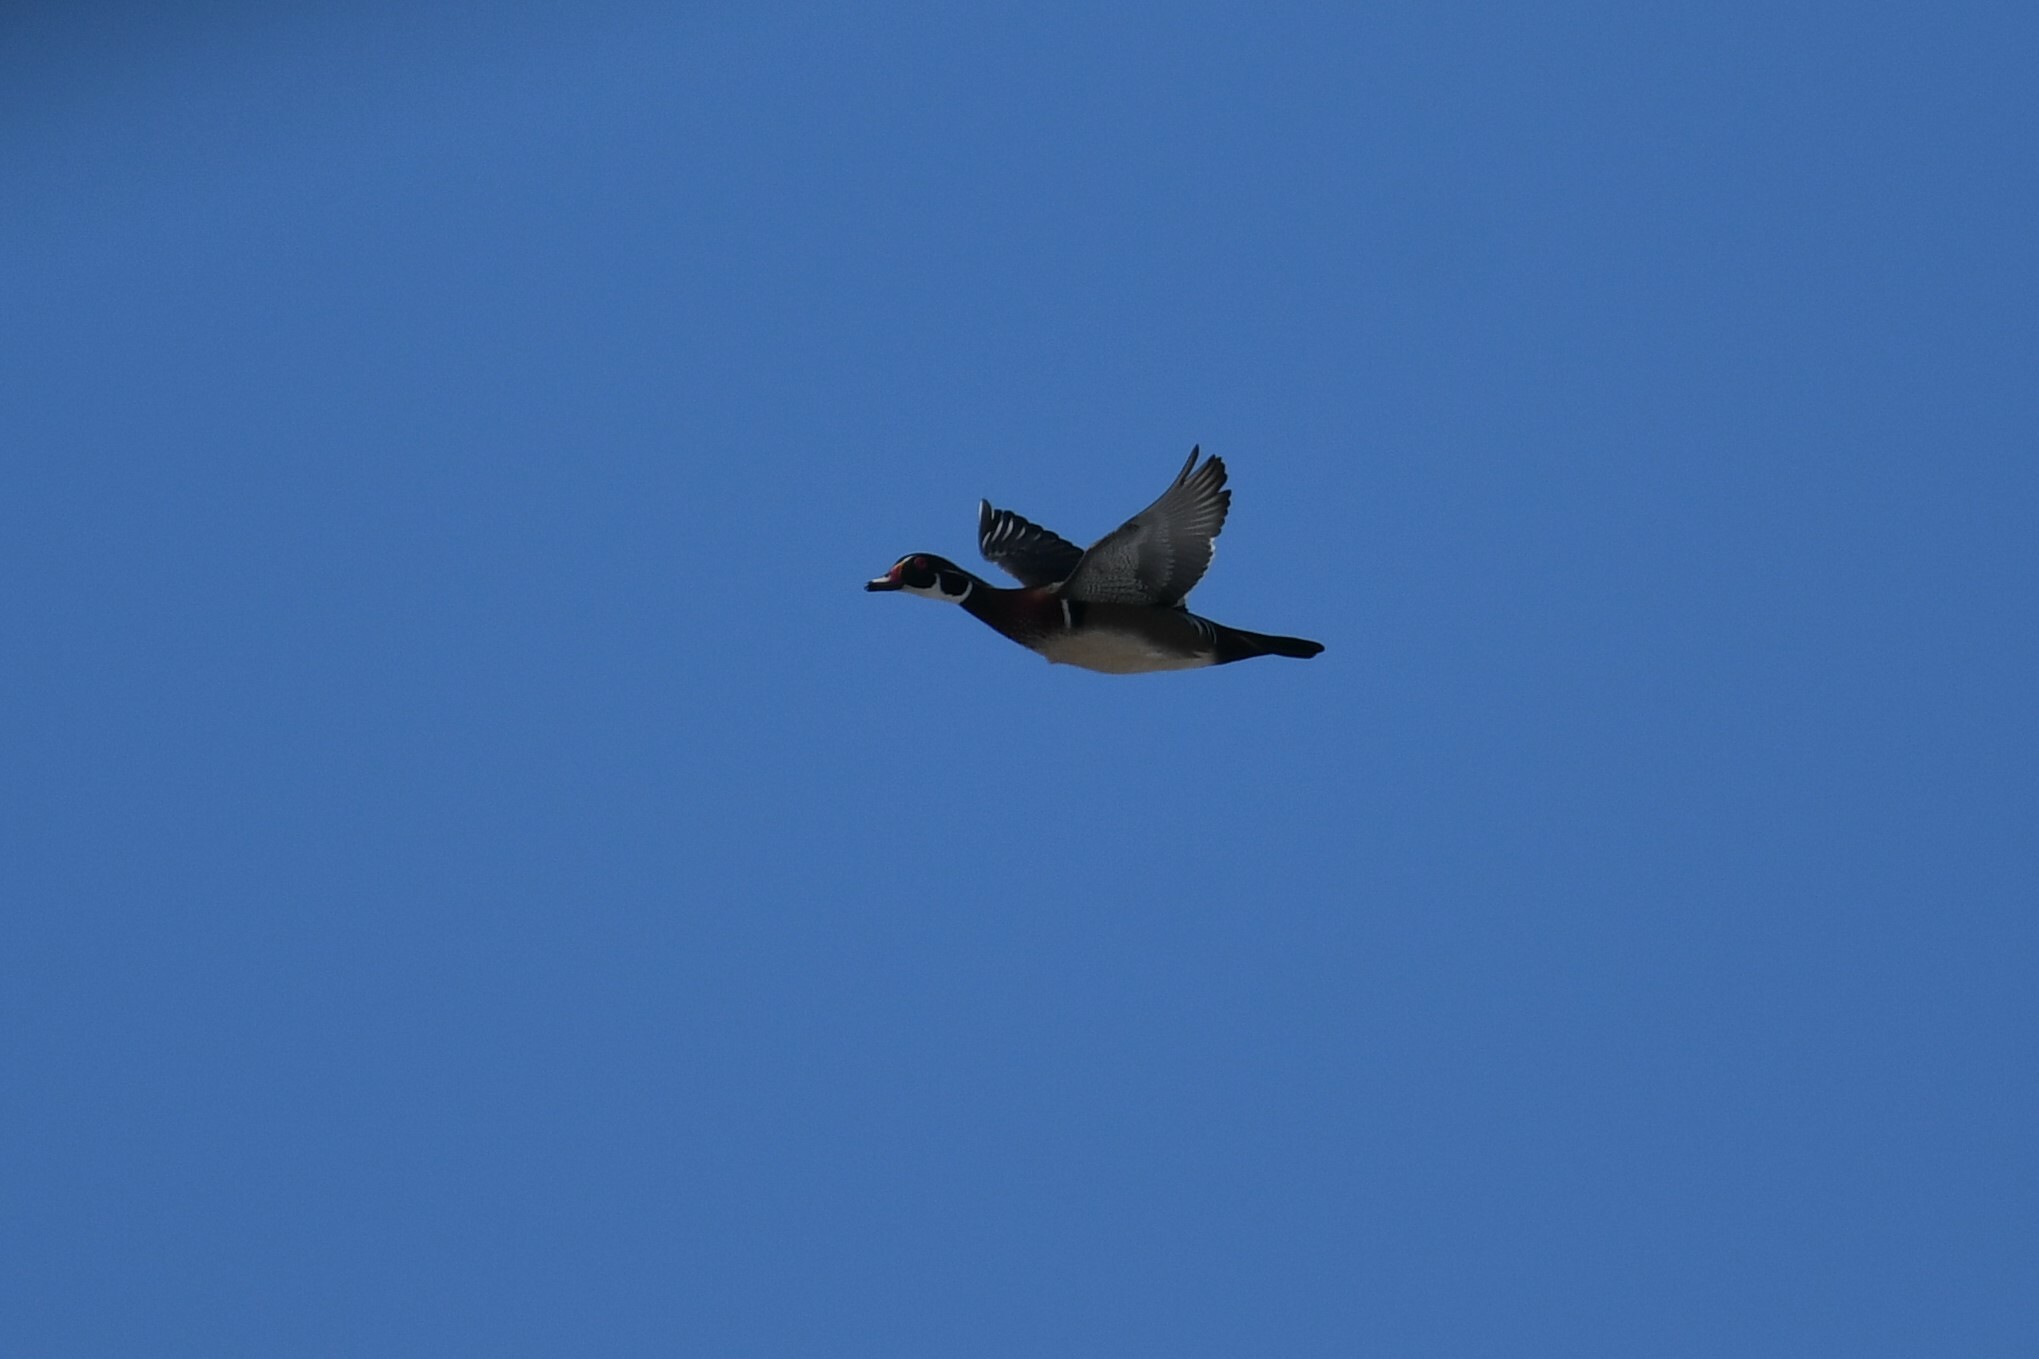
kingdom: Animalia
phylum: Chordata
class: Aves
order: Anseriformes
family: Anatidae
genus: Aix
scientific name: Aix sponsa
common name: Wood duck
